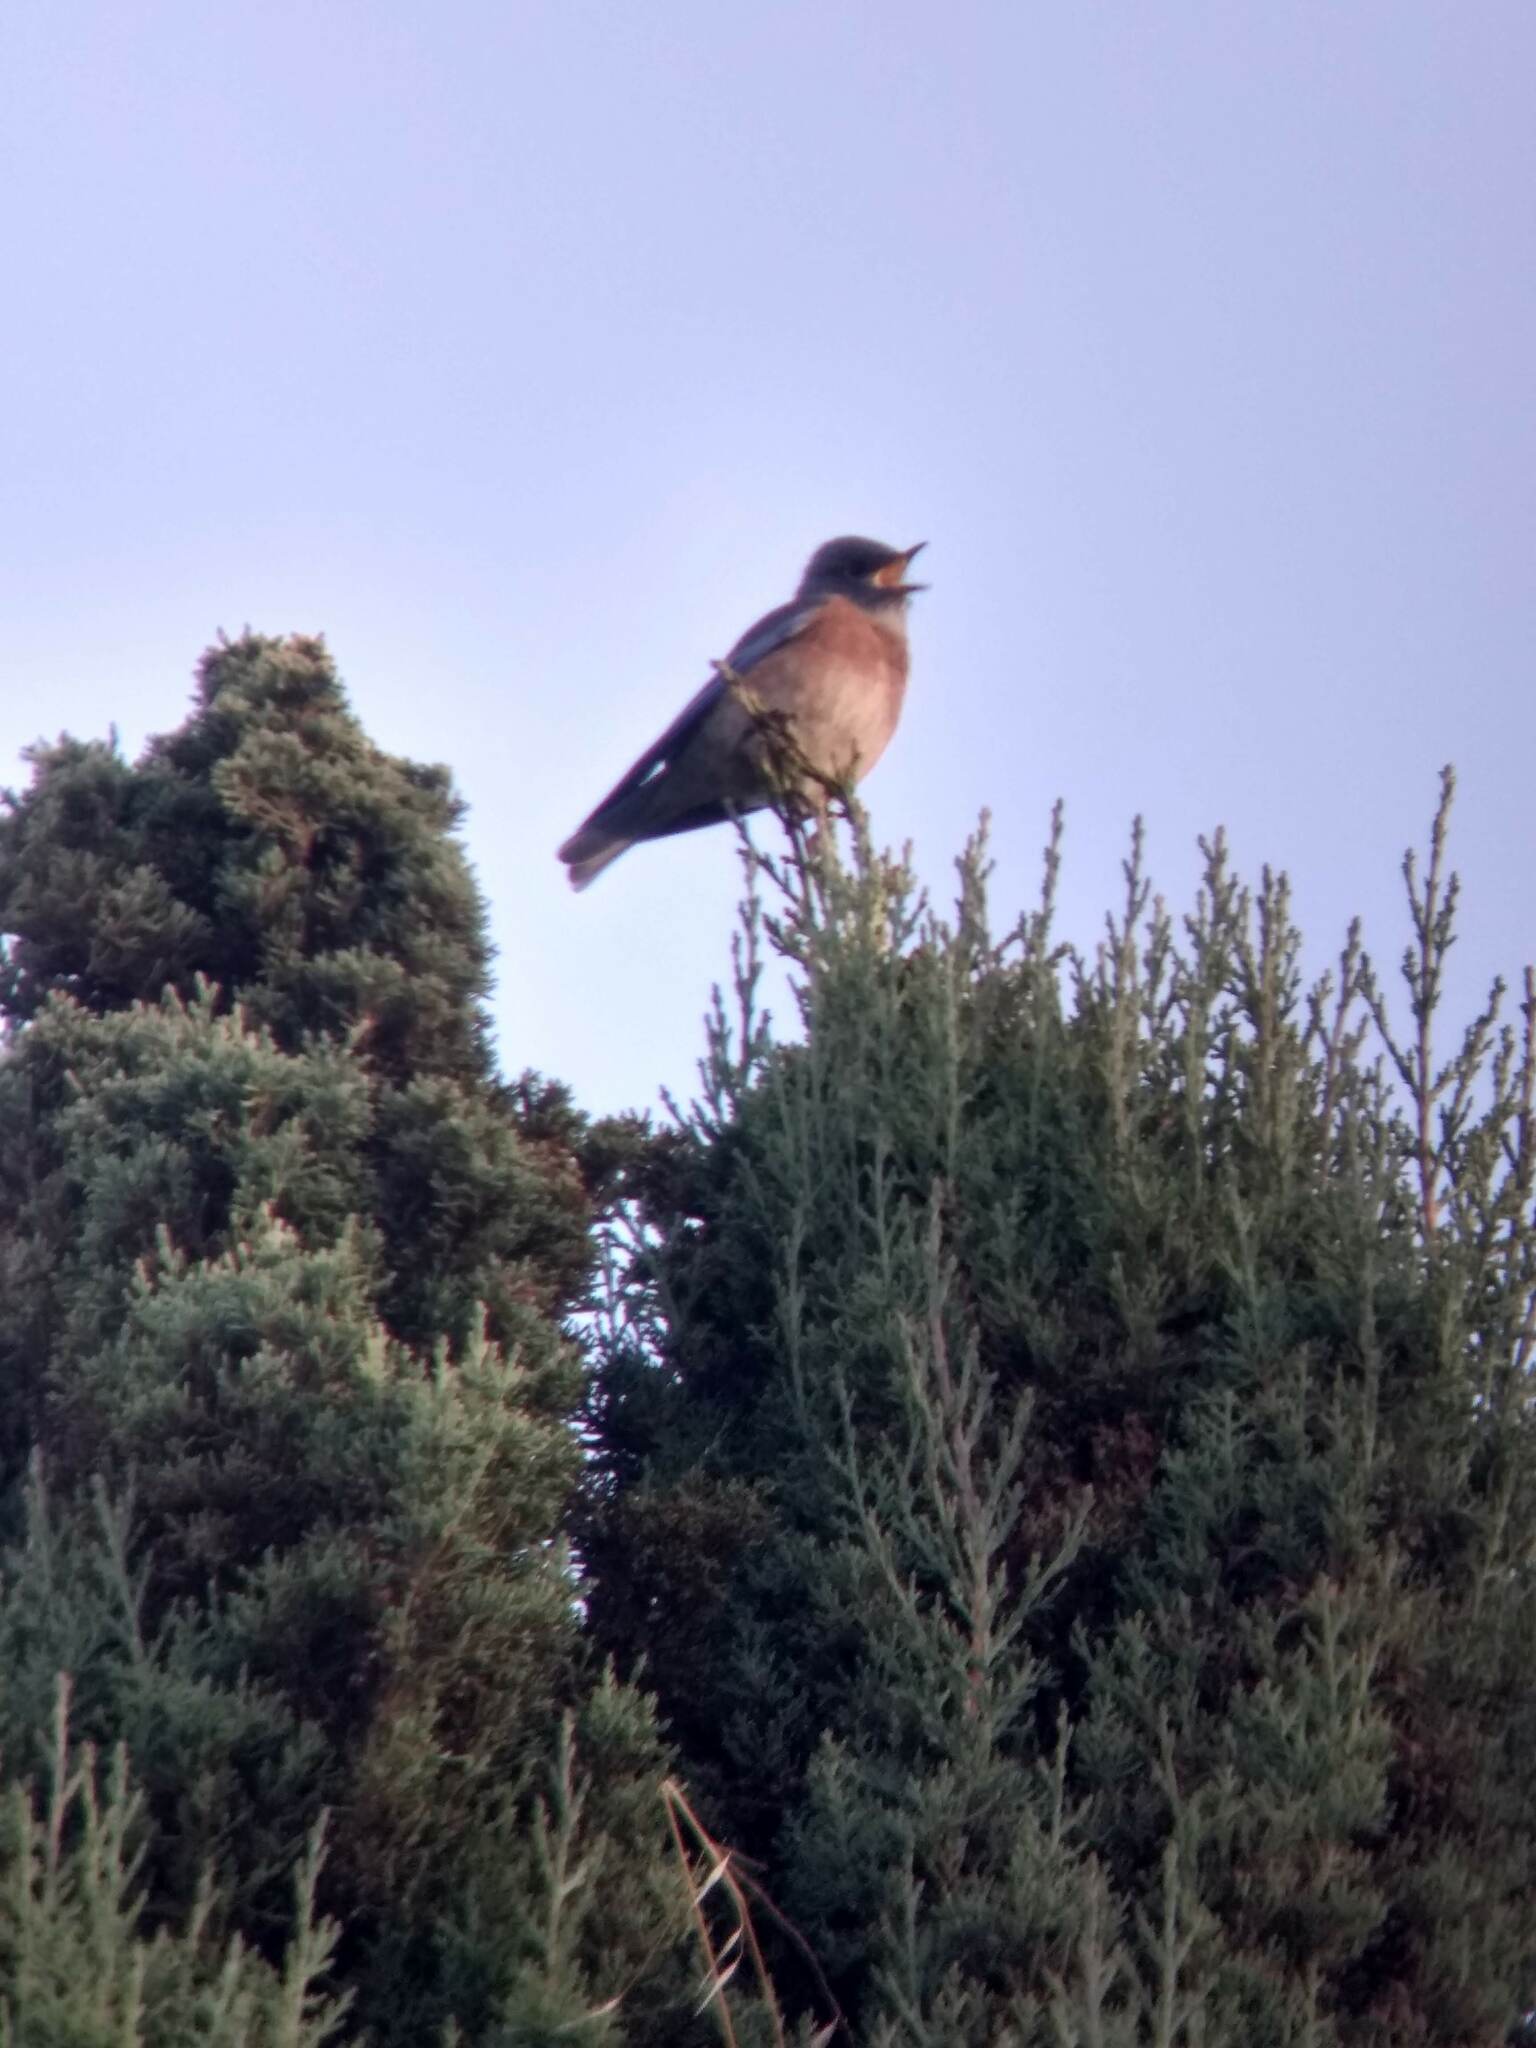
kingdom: Animalia
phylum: Chordata
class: Aves
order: Passeriformes
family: Turdidae
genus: Sialia
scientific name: Sialia mexicana
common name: Western bluebird
